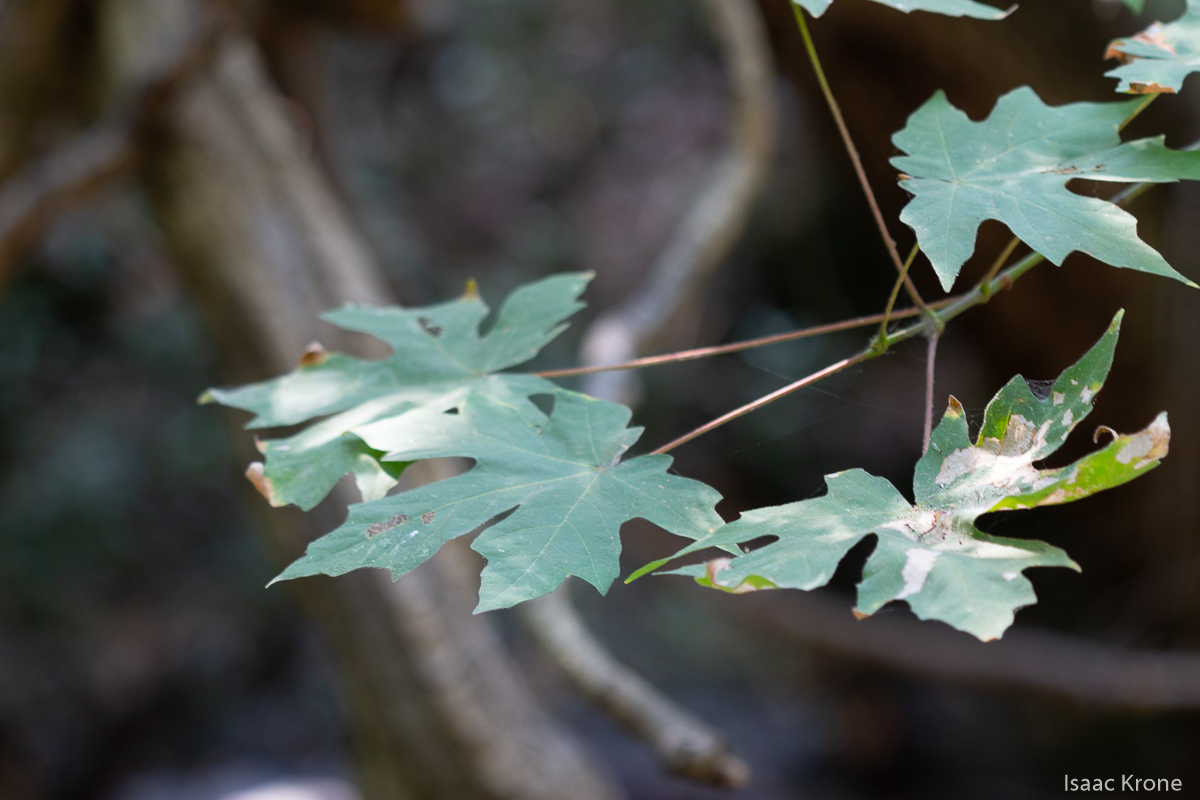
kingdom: Plantae
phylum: Tracheophyta
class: Magnoliopsida
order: Sapindales
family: Sapindaceae
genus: Acer
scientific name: Acer macrophyllum
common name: Oregon maple
